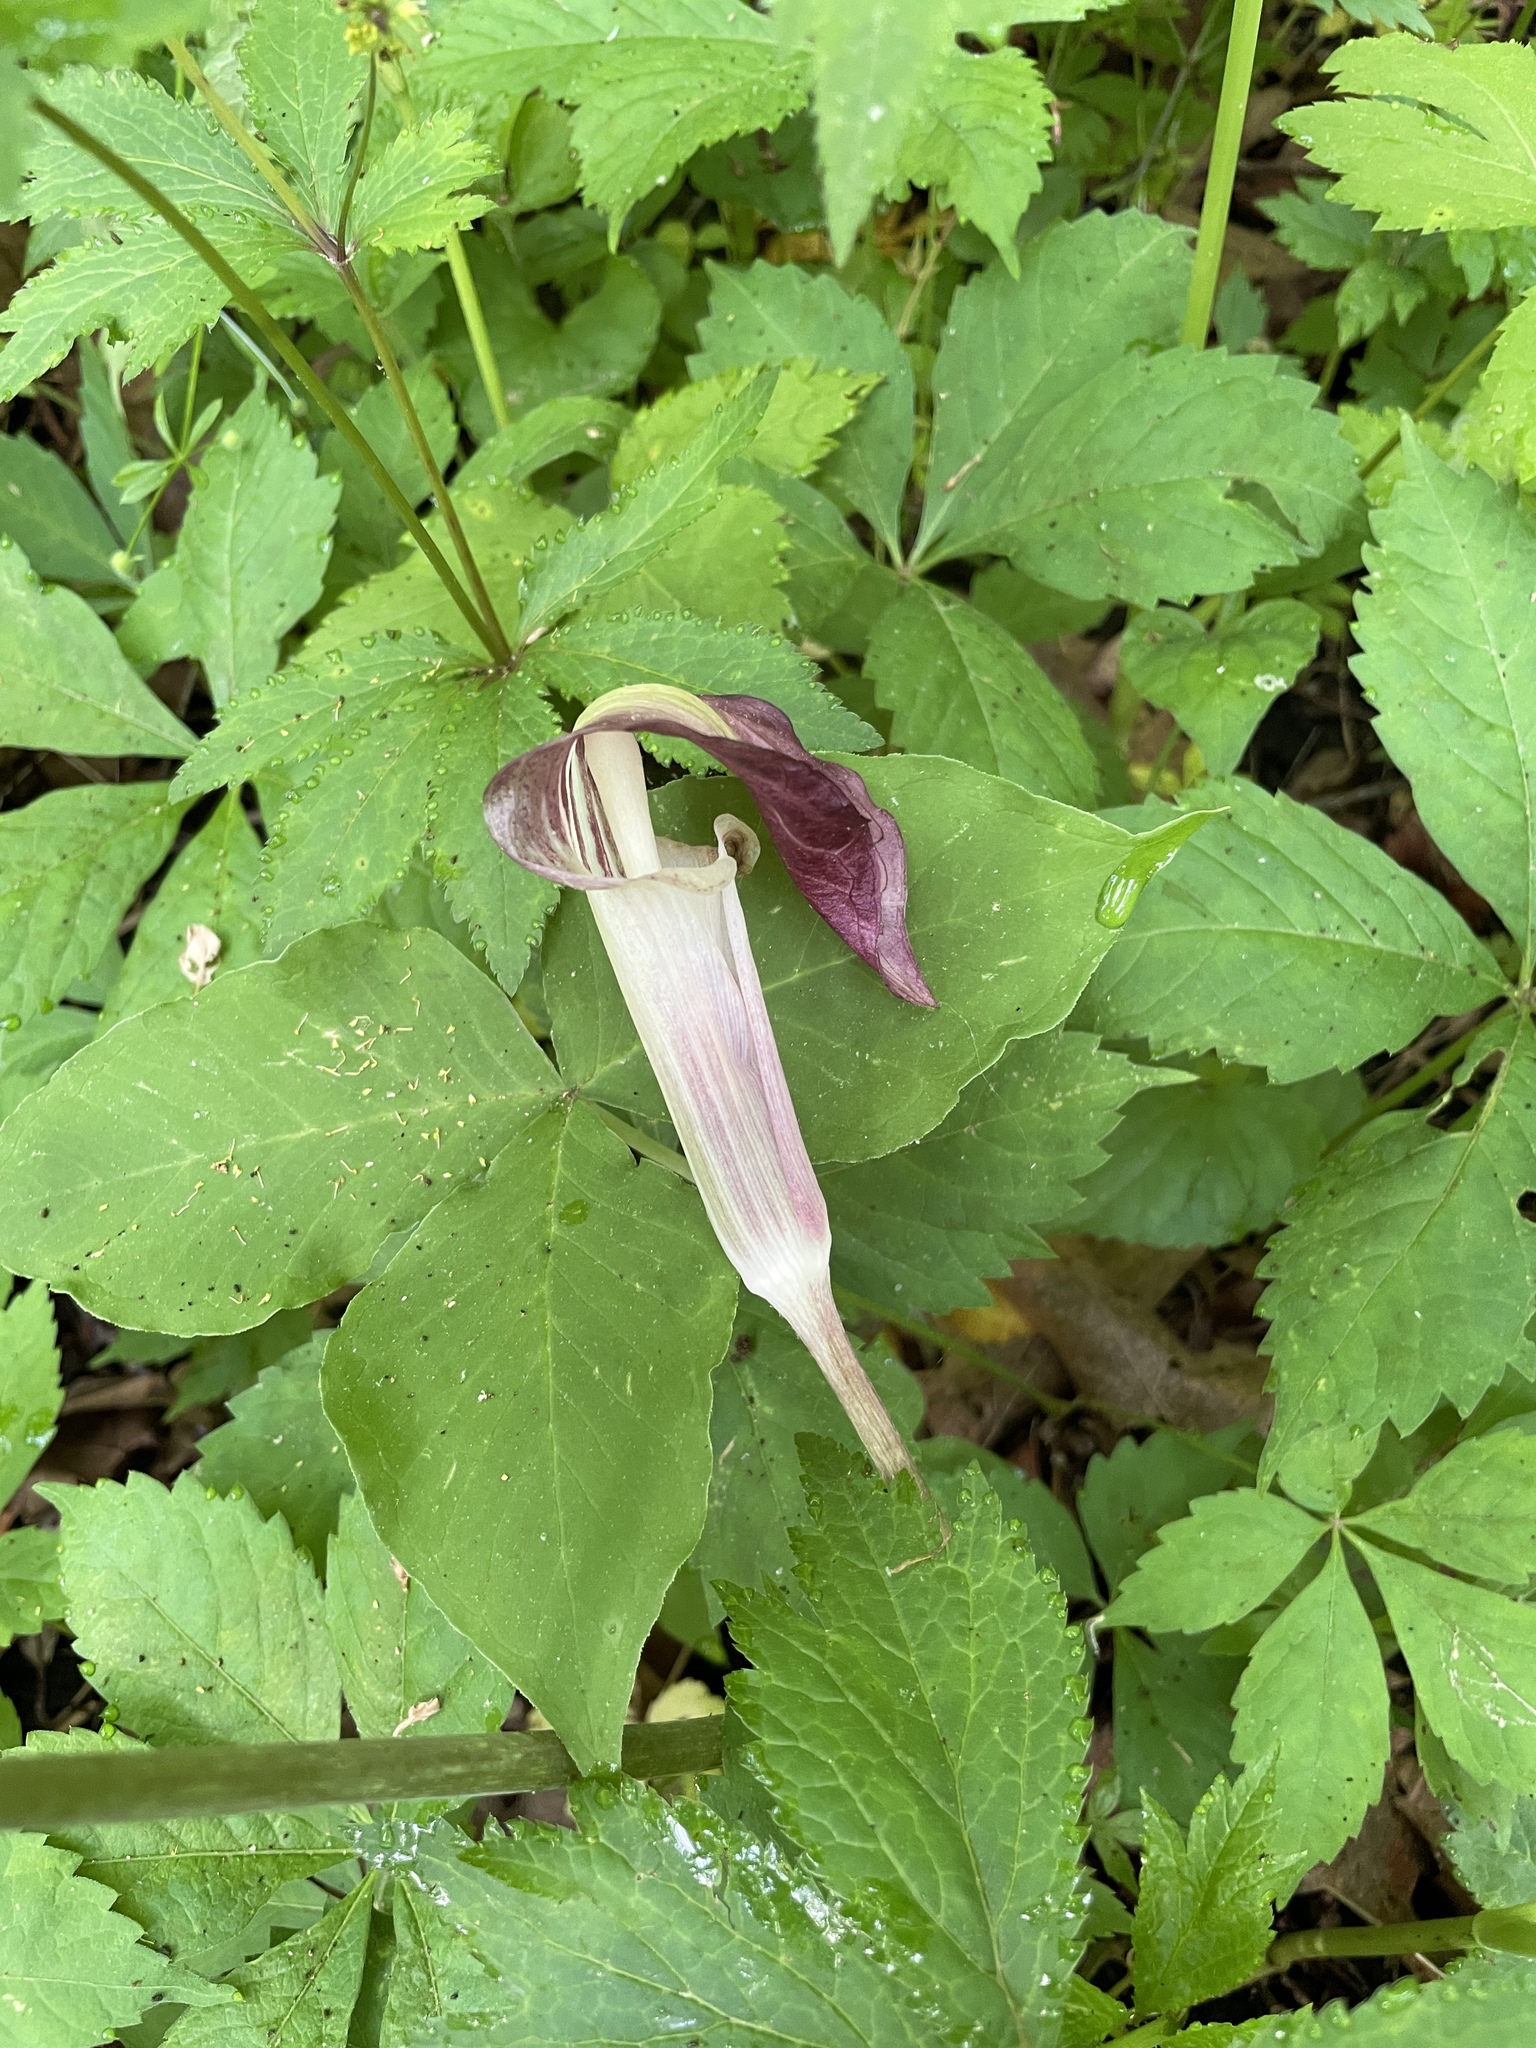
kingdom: Plantae
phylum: Tracheophyta
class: Liliopsida
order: Alismatales
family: Araceae
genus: Arisaema
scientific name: Arisaema triphyllum
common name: Jack-in-the-pulpit
